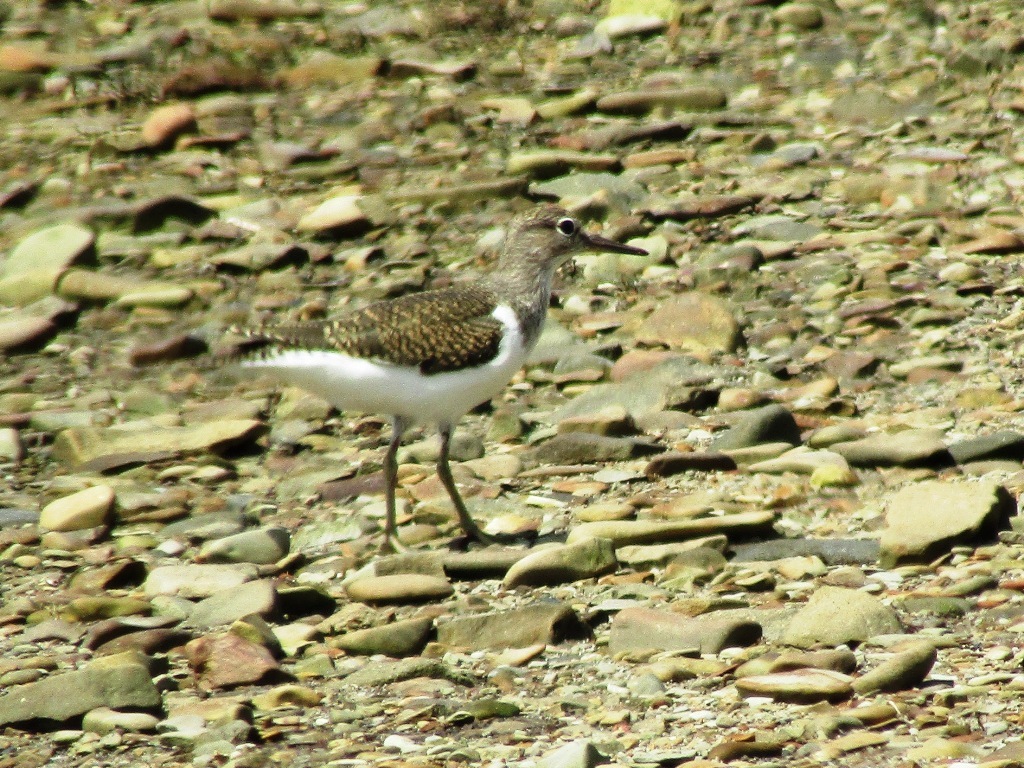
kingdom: Animalia
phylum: Chordata
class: Aves
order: Charadriiformes
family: Scolopacidae
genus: Actitis
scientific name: Actitis hypoleucos
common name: Common sandpiper
